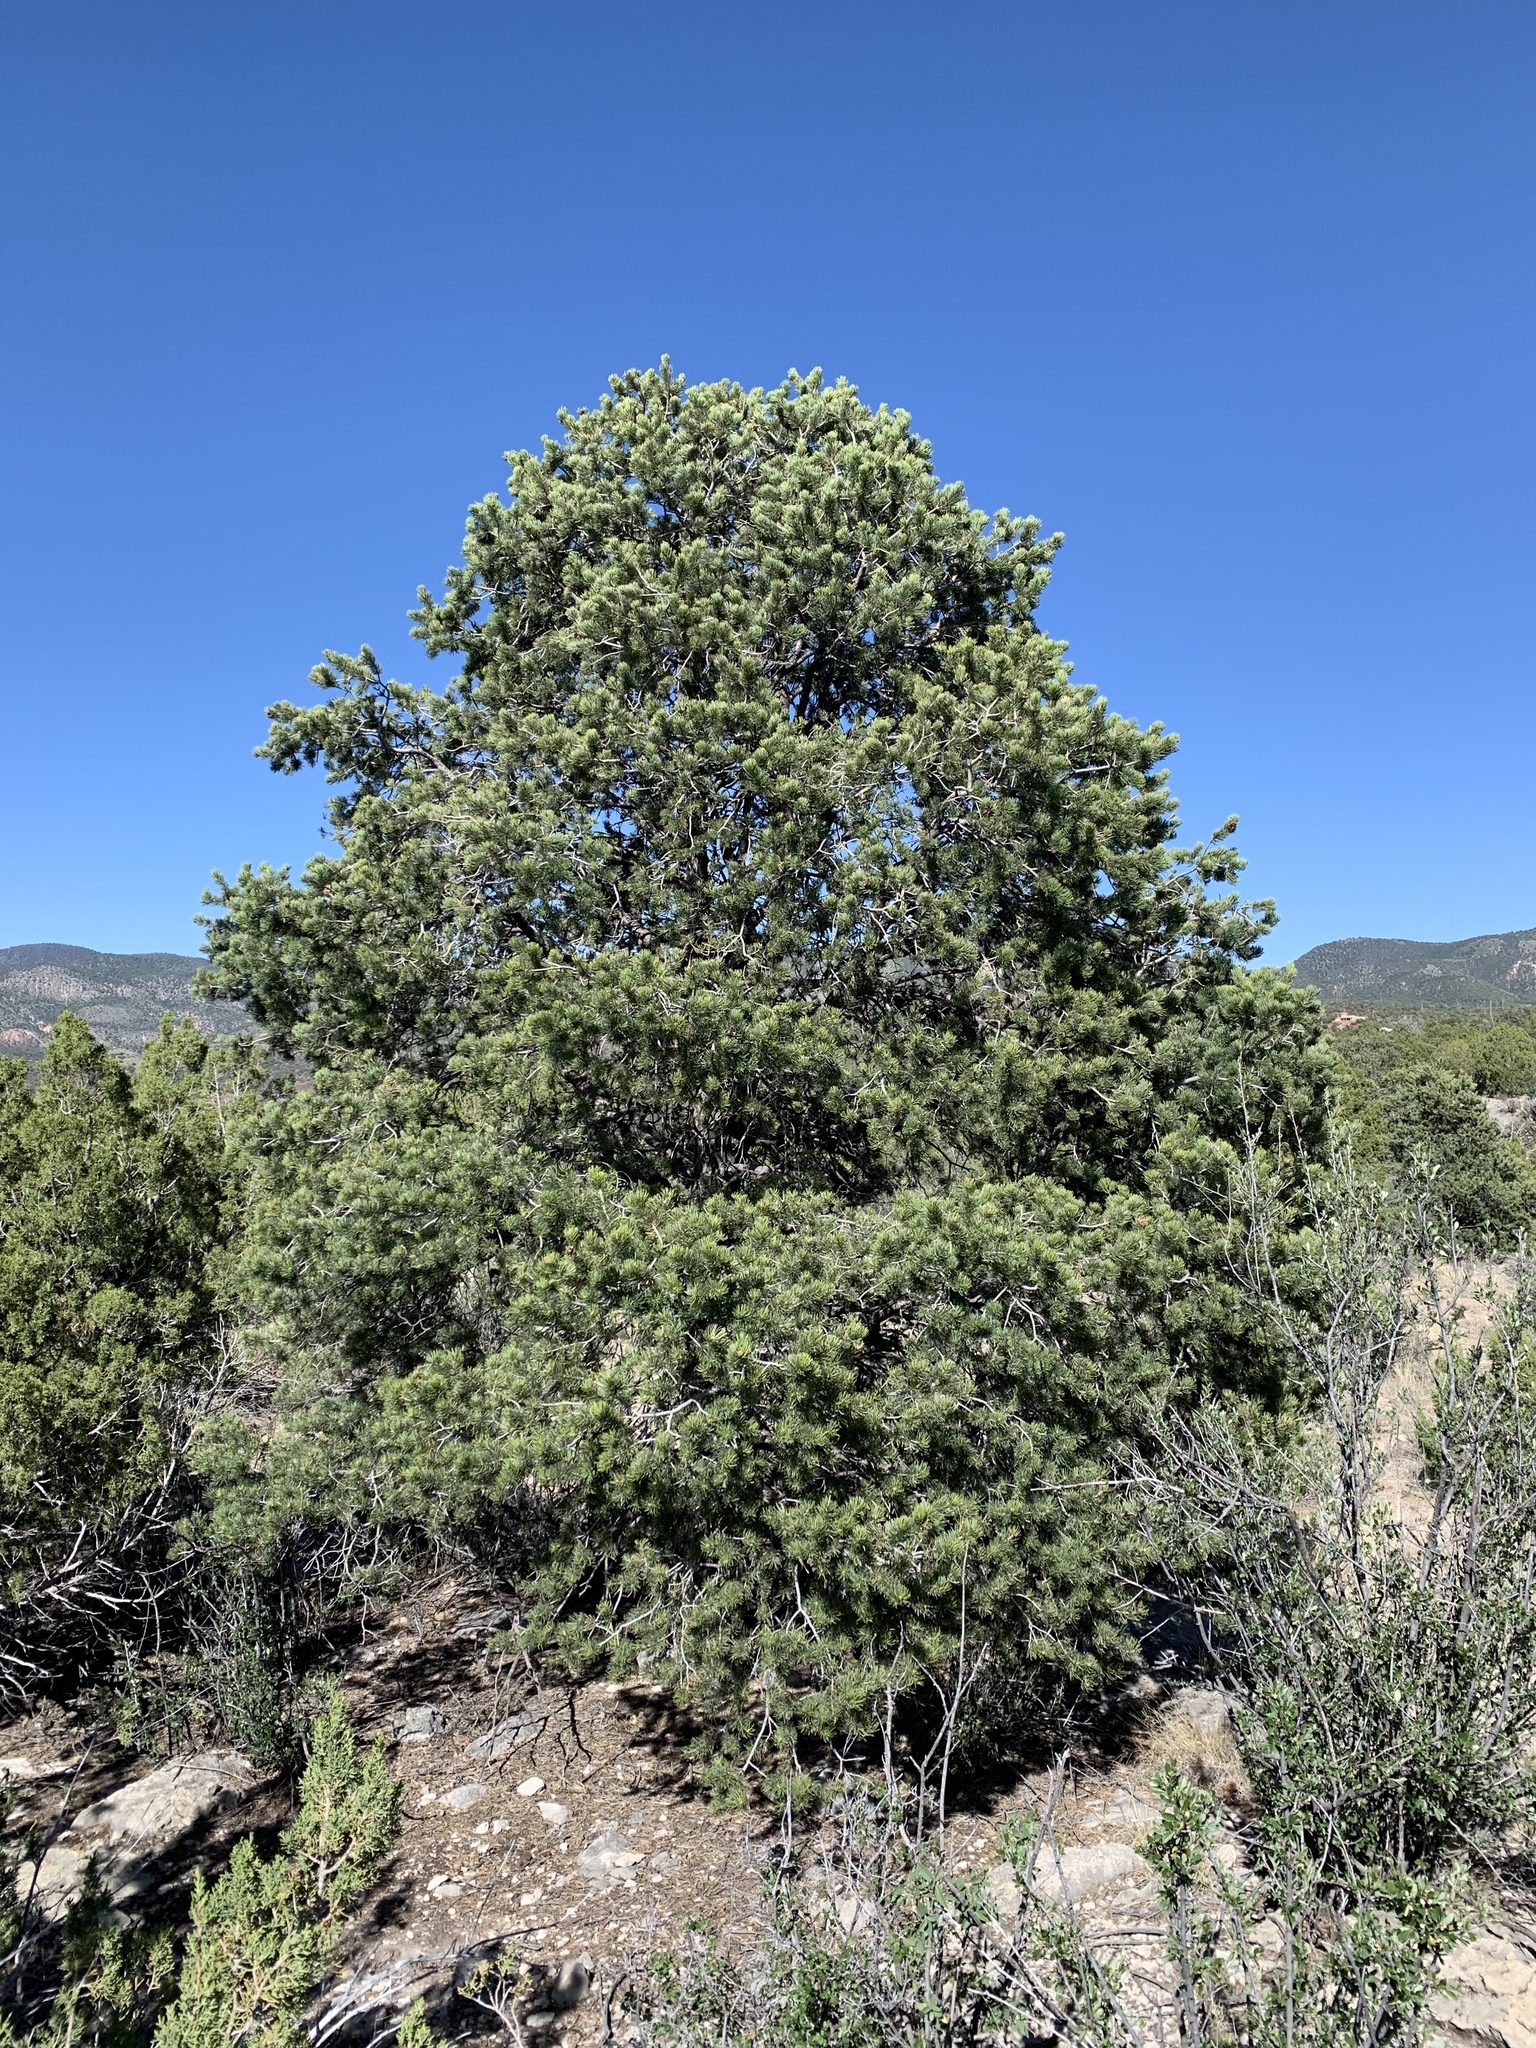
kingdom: Plantae
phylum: Tracheophyta
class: Pinopsida
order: Pinales
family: Pinaceae
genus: Pinus
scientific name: Pinus edulis
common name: Colorado pinyon
